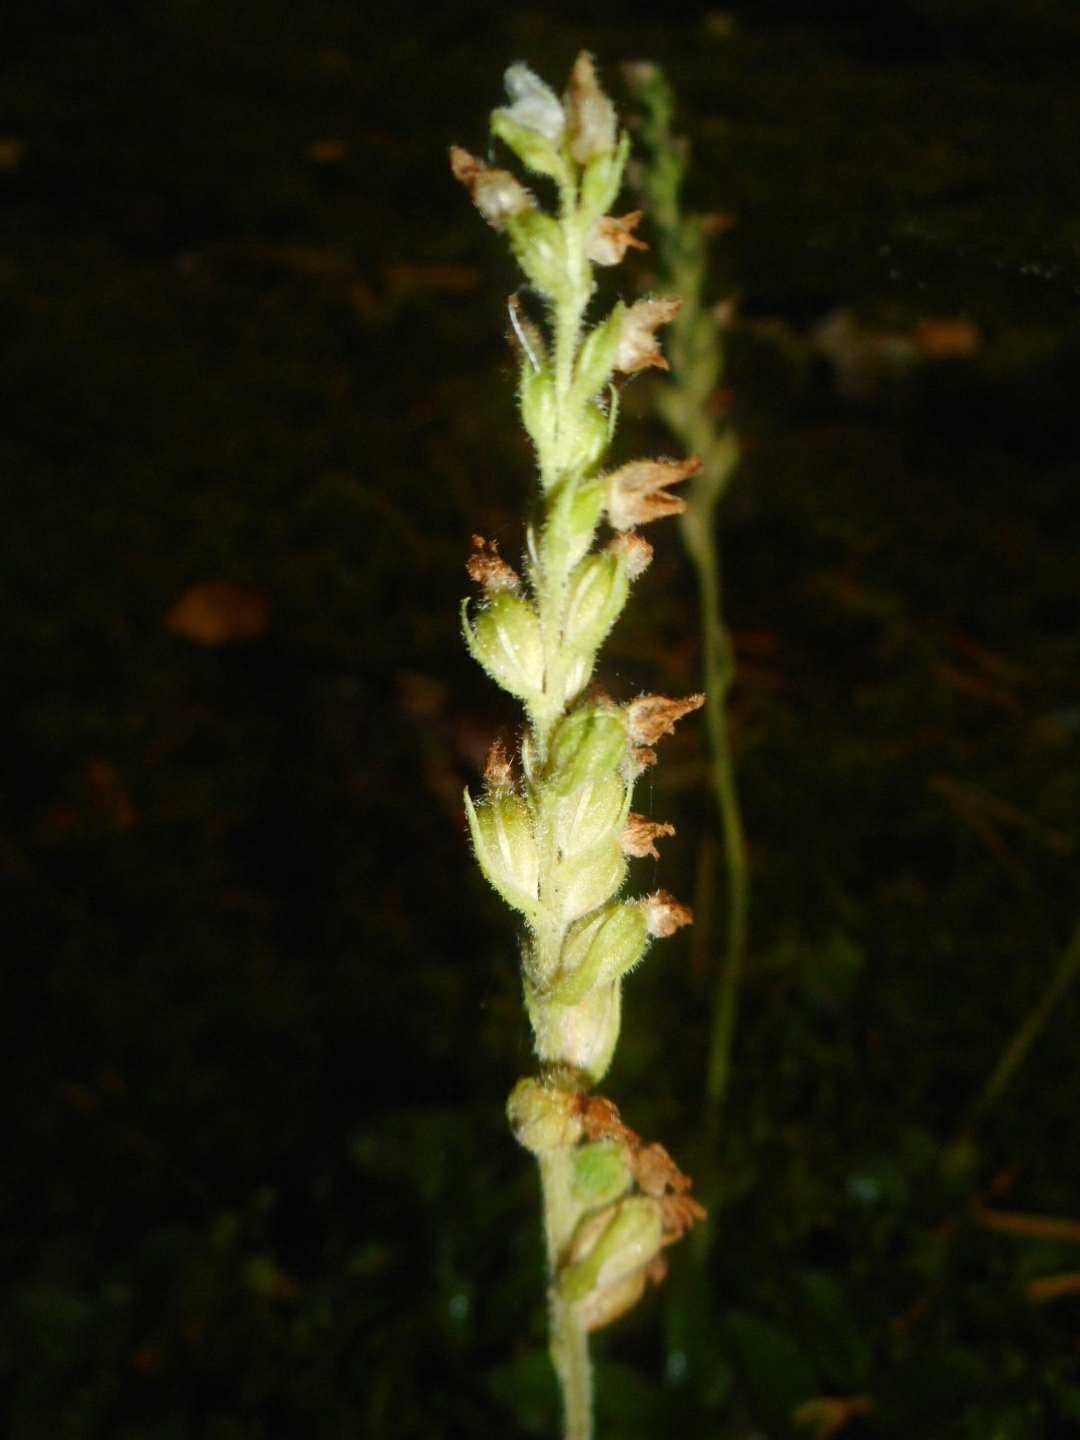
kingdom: Plantae
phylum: Tracheophyta
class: Liliopsida
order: Asparagales
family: Orchidaceae
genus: Goodyera
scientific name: Goodyera repens
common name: Creeping lady's-tresses
